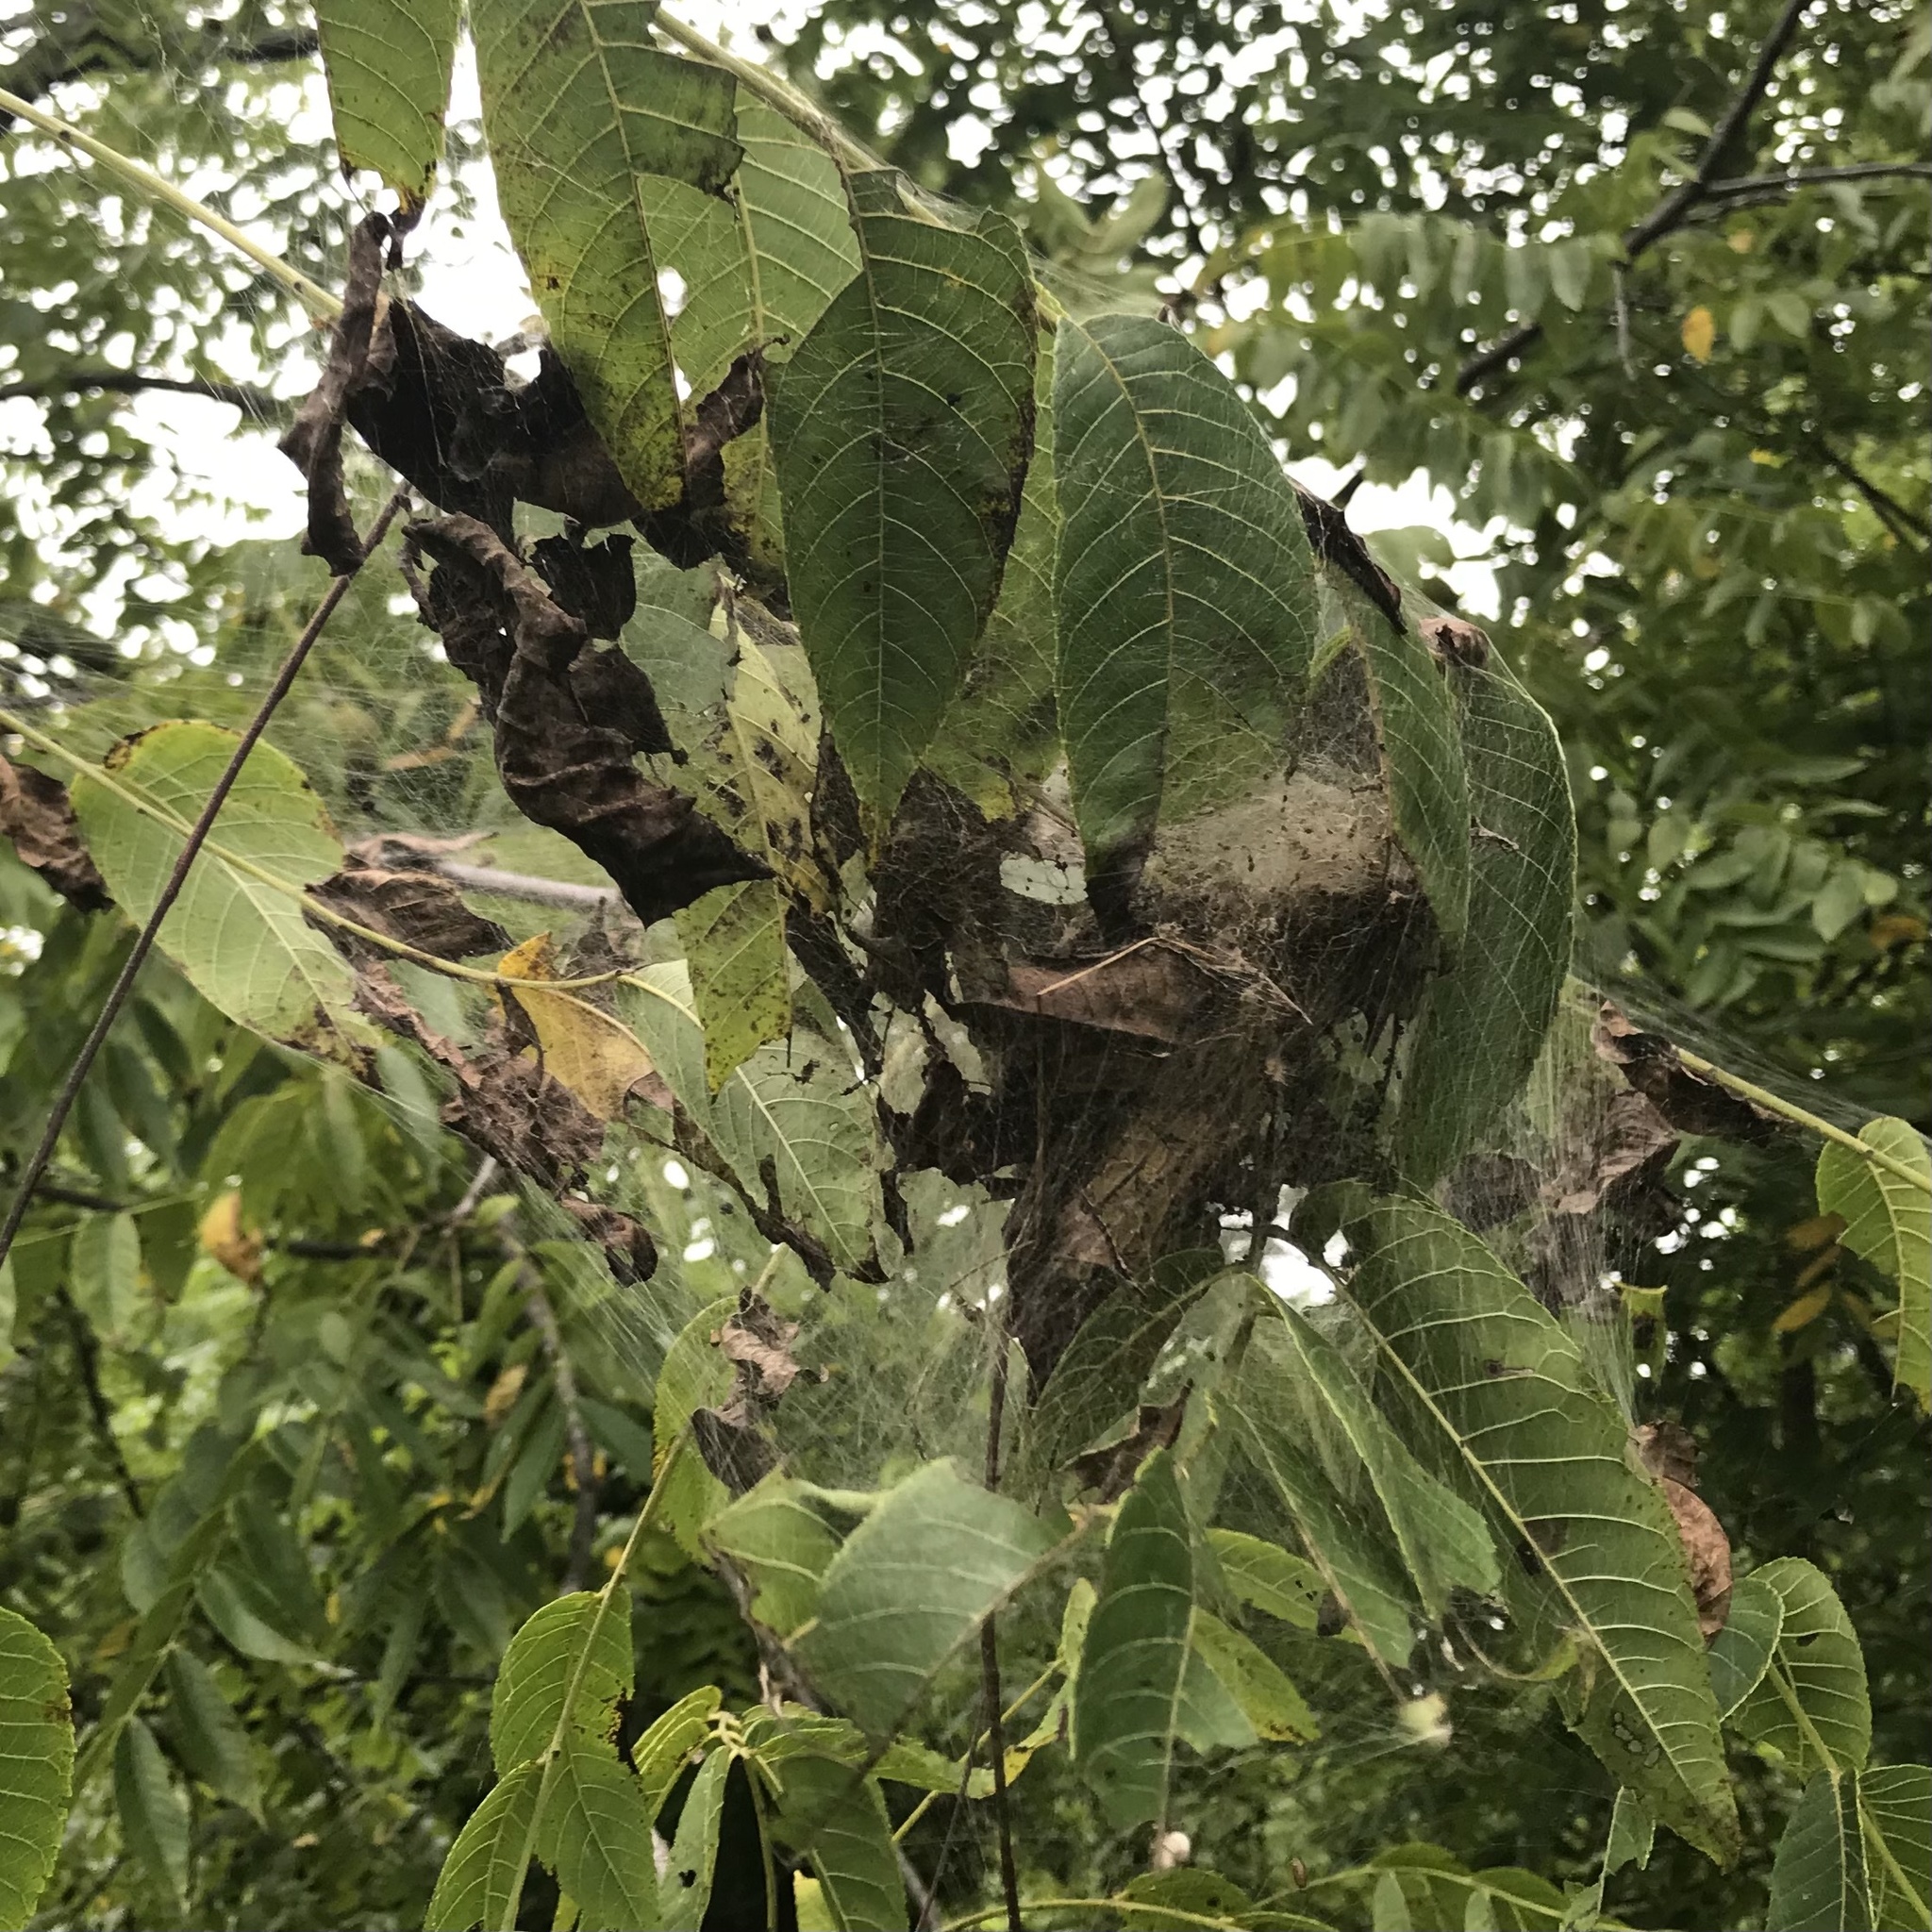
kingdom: Animalia
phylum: Arthropoda
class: Insecta
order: Lepidoptera
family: Erebidae
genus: Hyphantria
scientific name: Hyphantria cunea
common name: American white moth
